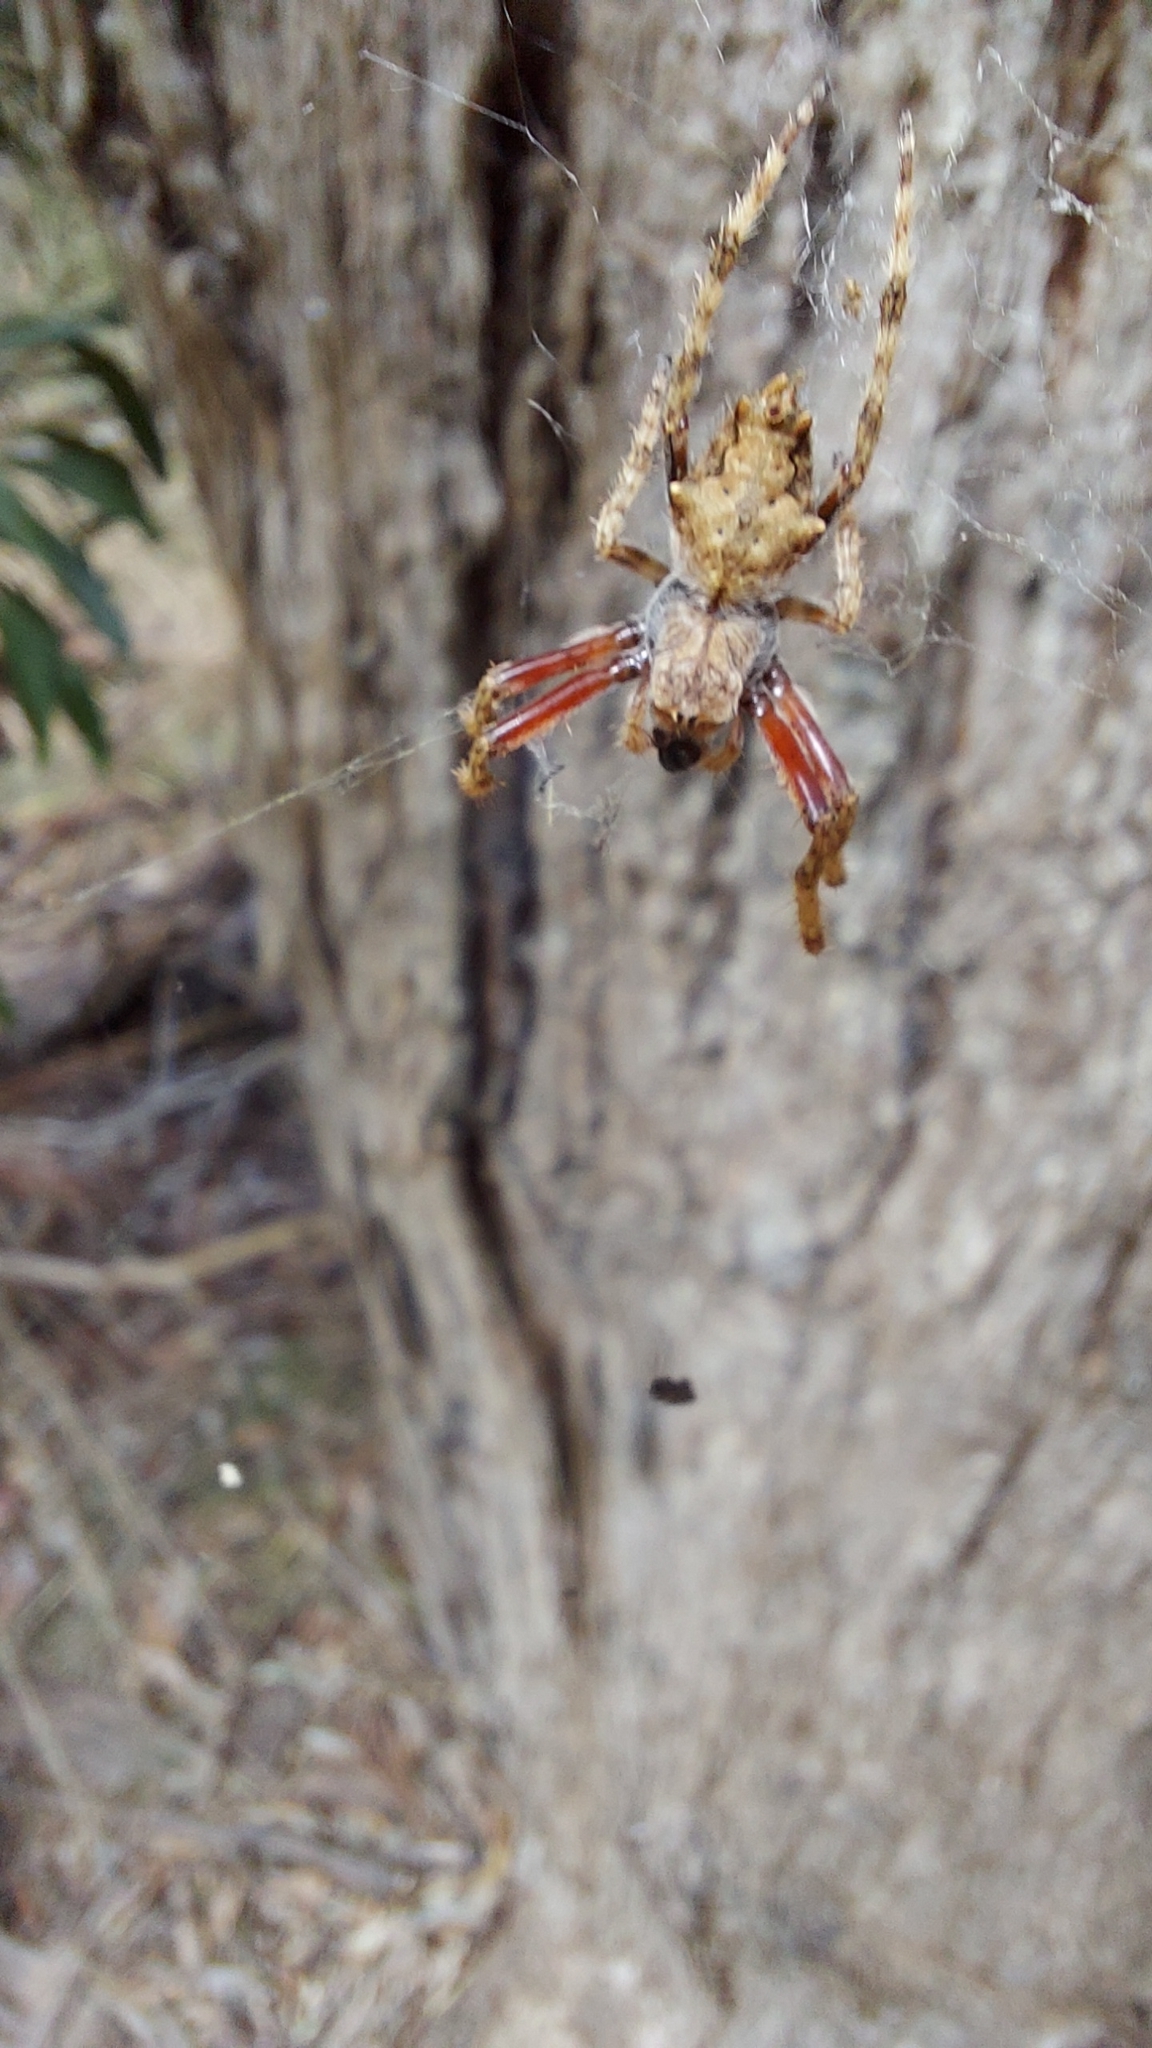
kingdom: Animalia
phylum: Arthropoda
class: Arachnida
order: Araneae
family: Araneidae
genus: Eriophora
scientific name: Eriophora pustulosa
